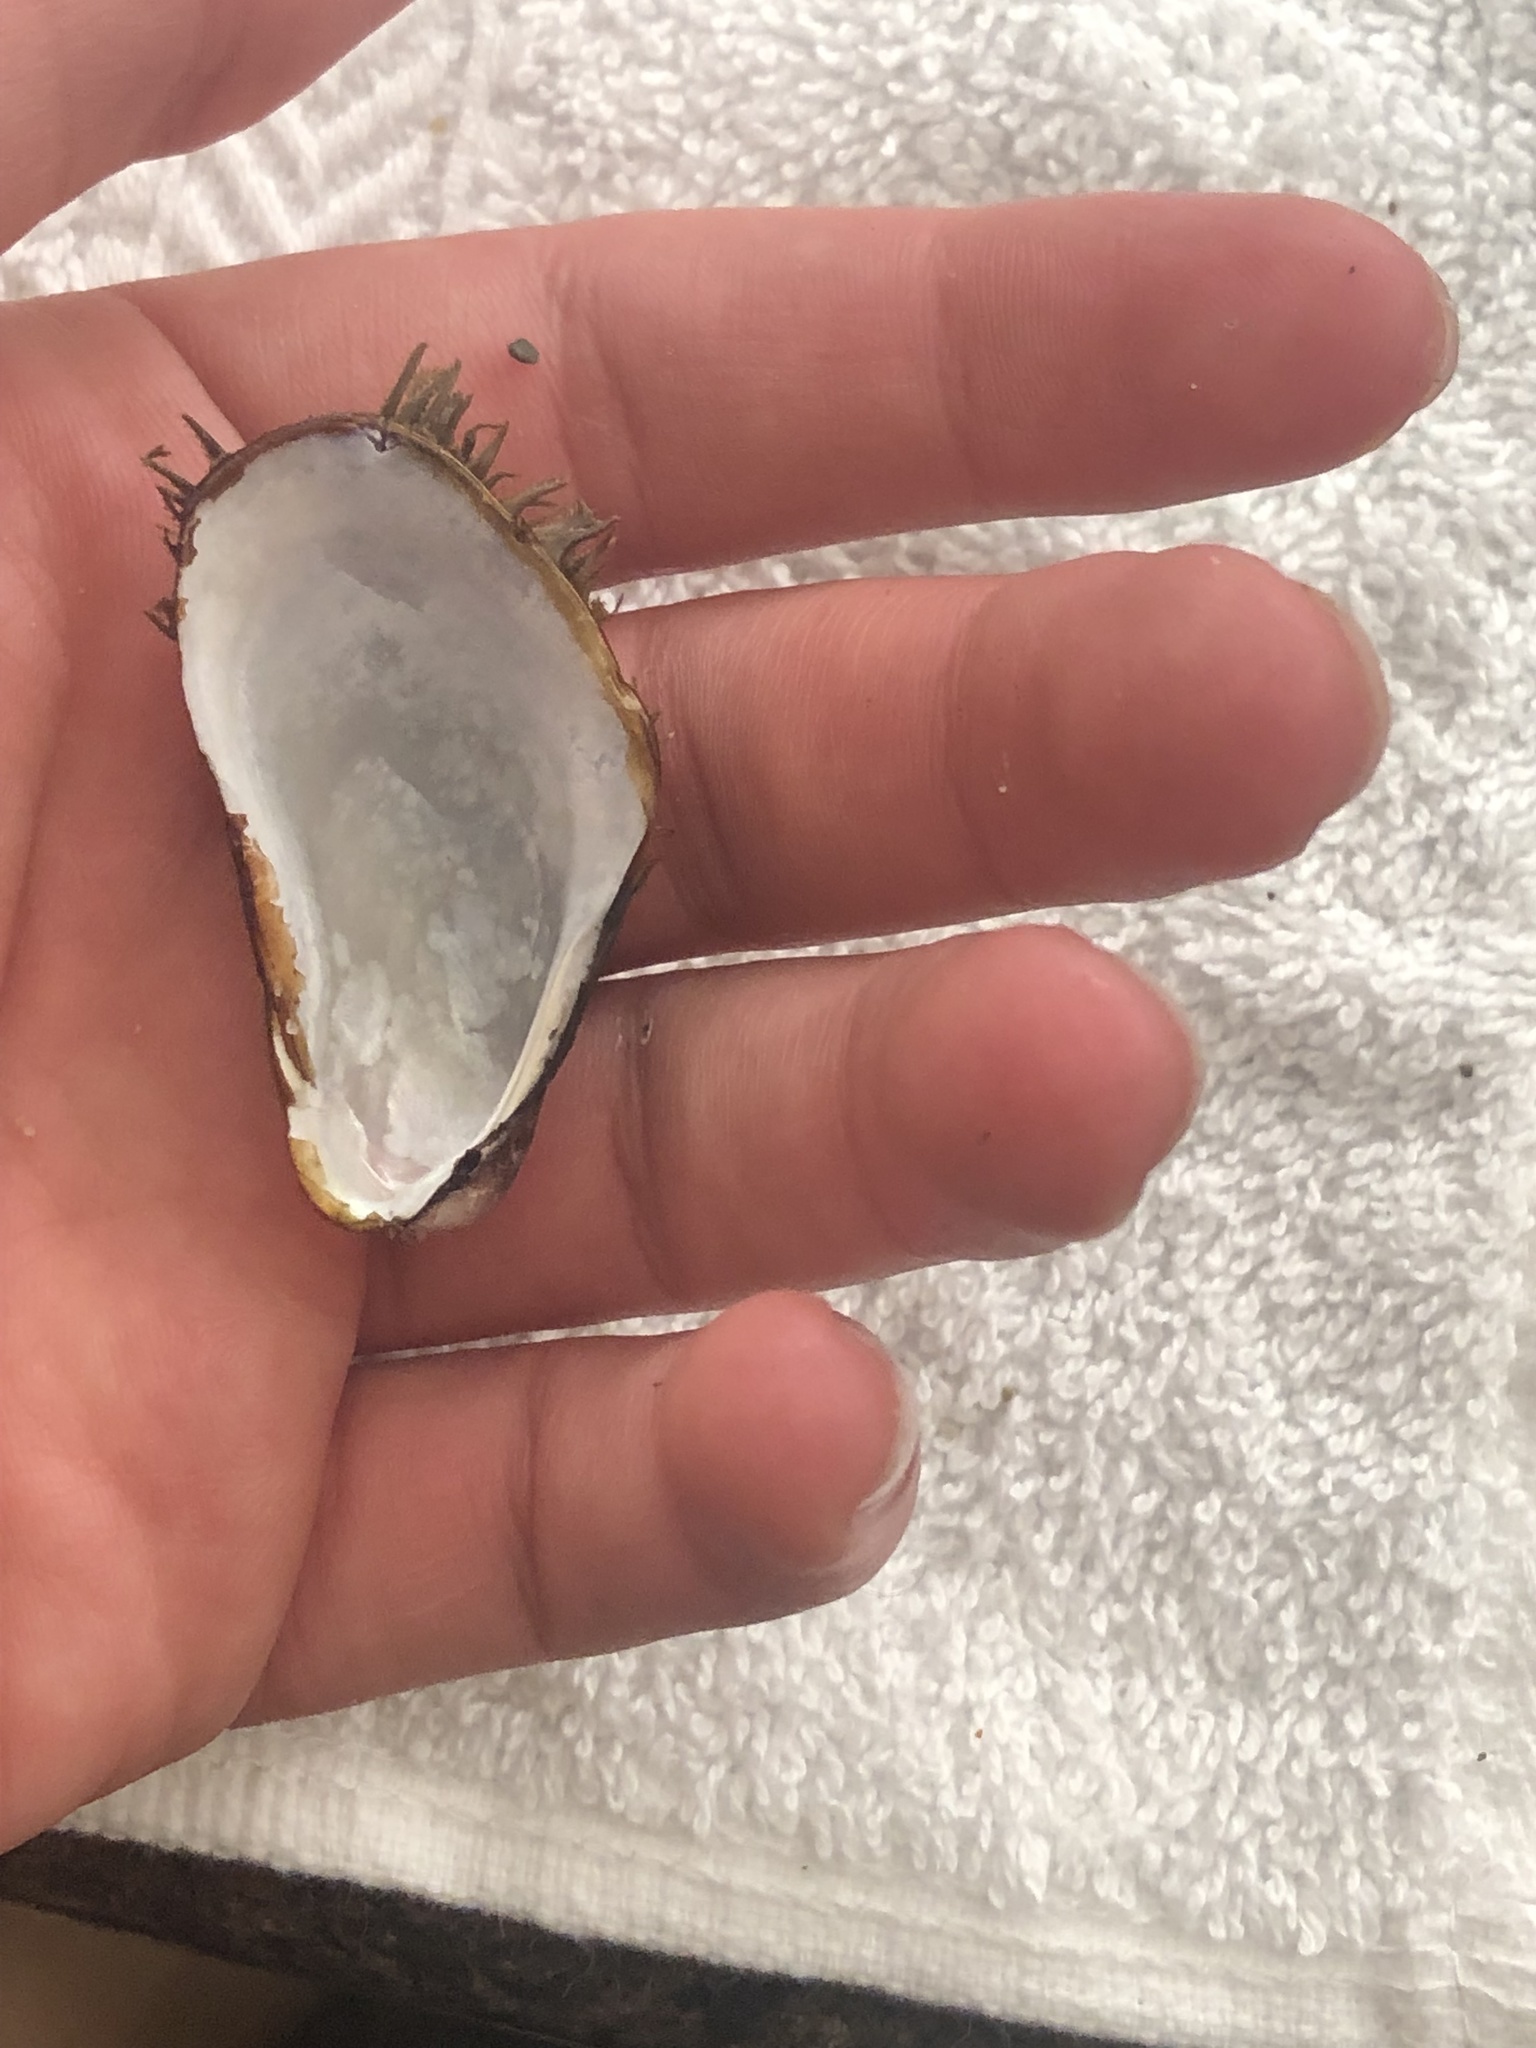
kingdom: Animalia
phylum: Mollusca
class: Bivalvia
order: Mytilida
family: Mytilidae
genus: Modiolus
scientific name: Modiolus capax
